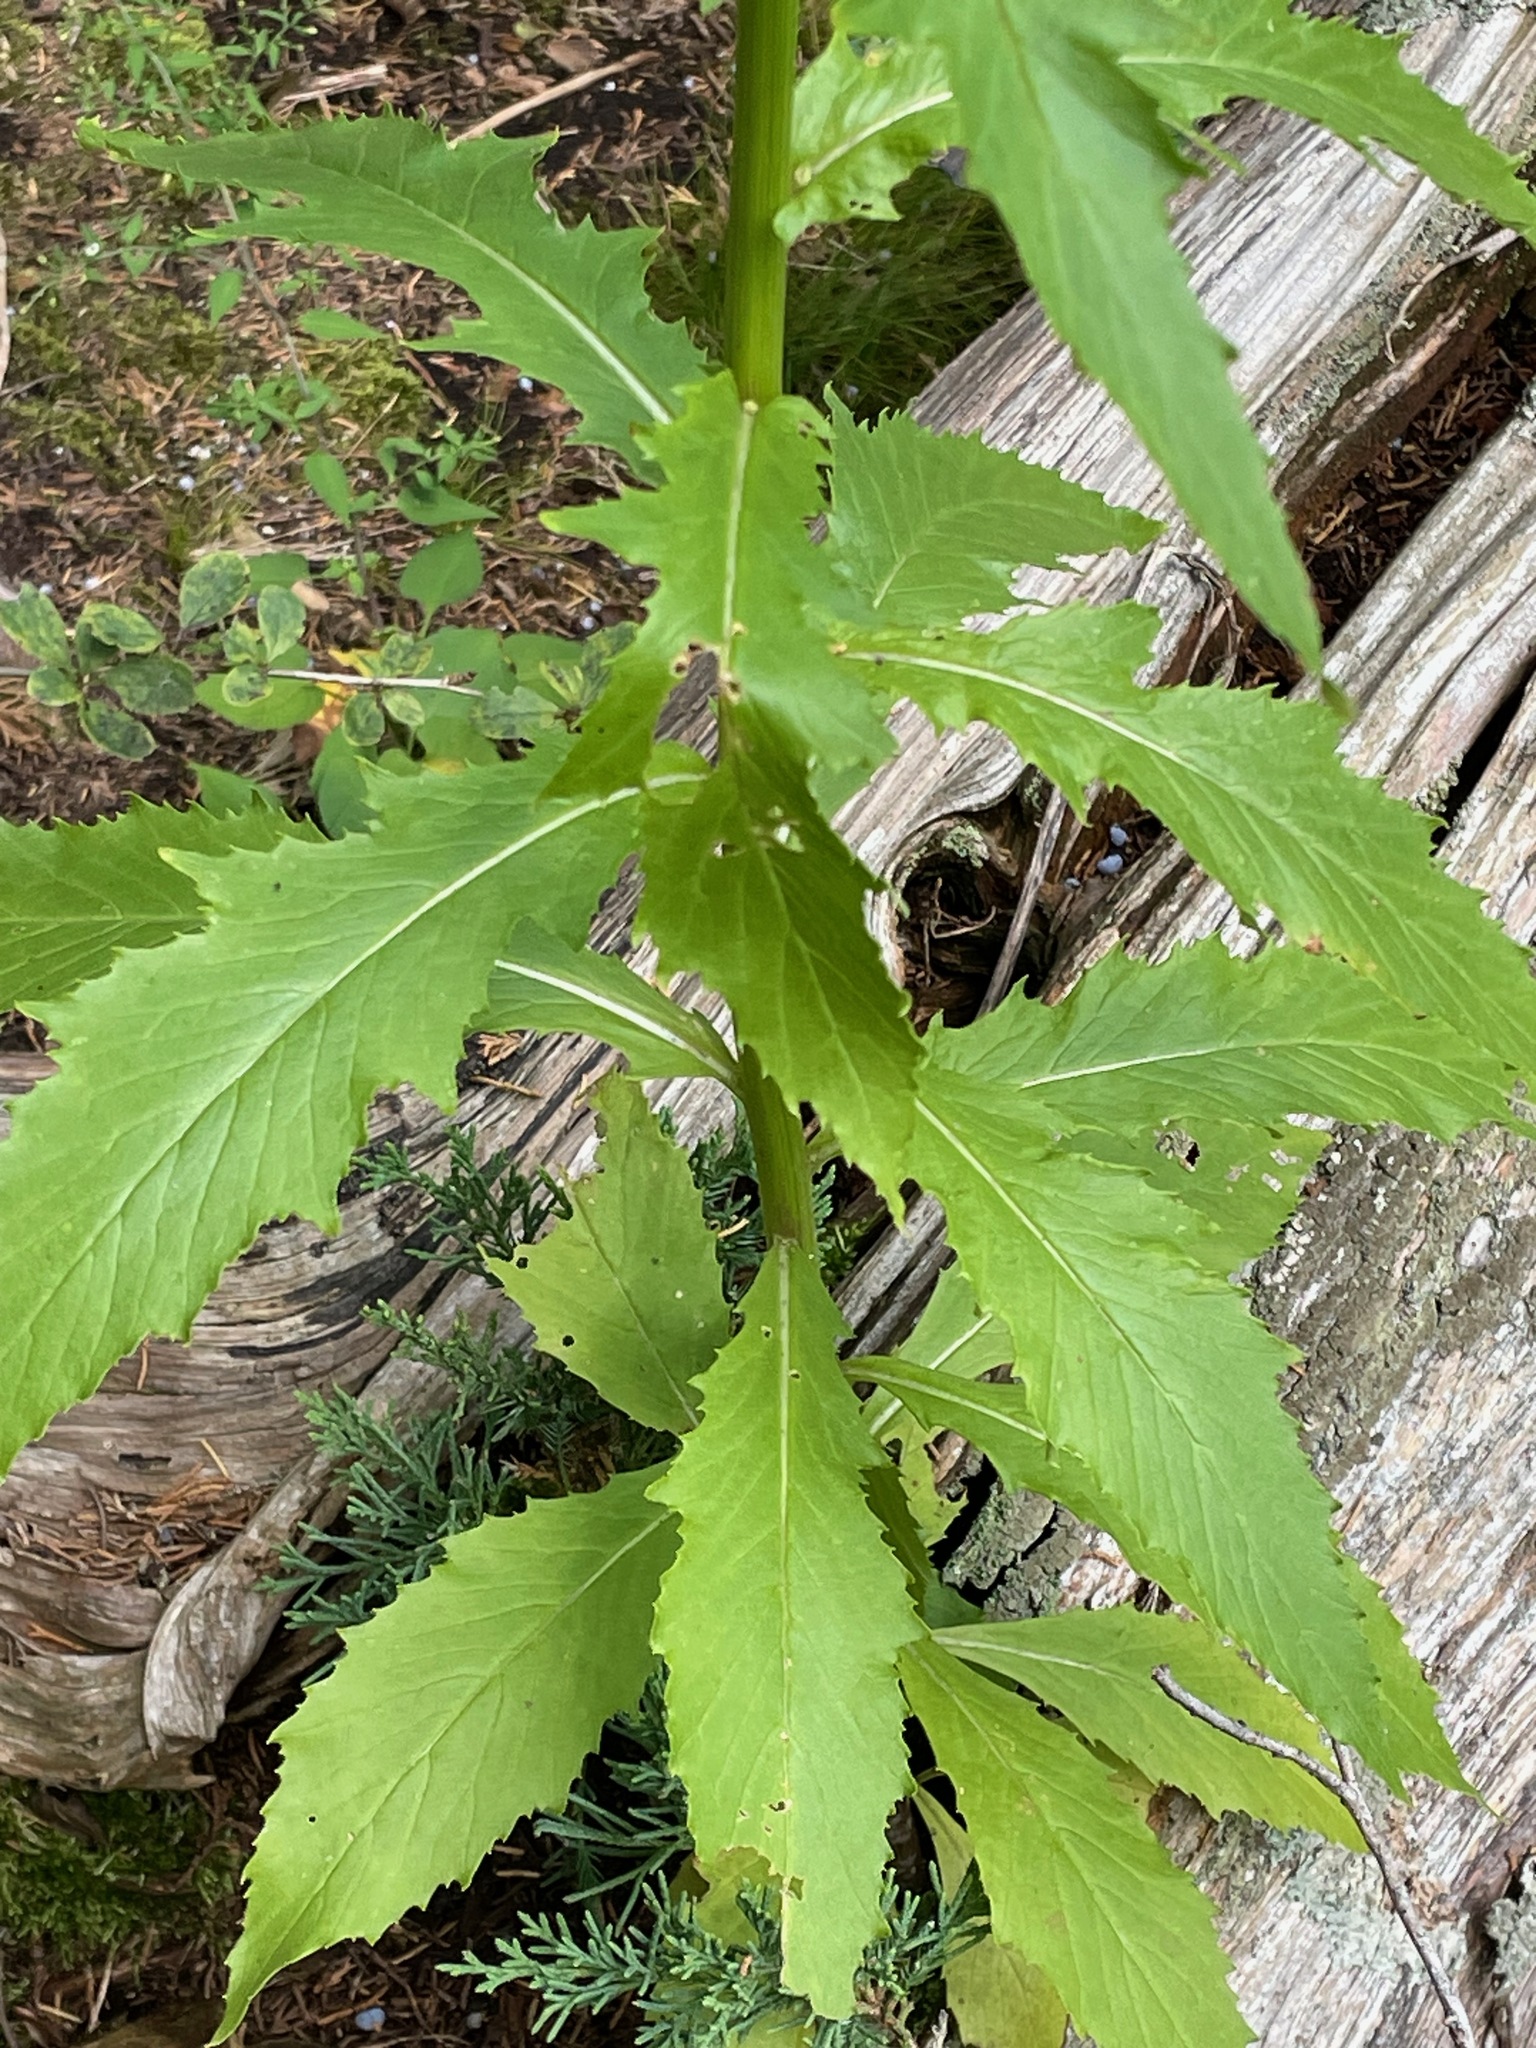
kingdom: Plantae
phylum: Tracheophyta
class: Magnoliopsida
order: Asterales
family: Asteraceae
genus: Erechtites
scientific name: Erechtites hieraciifolius
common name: American burnweed
